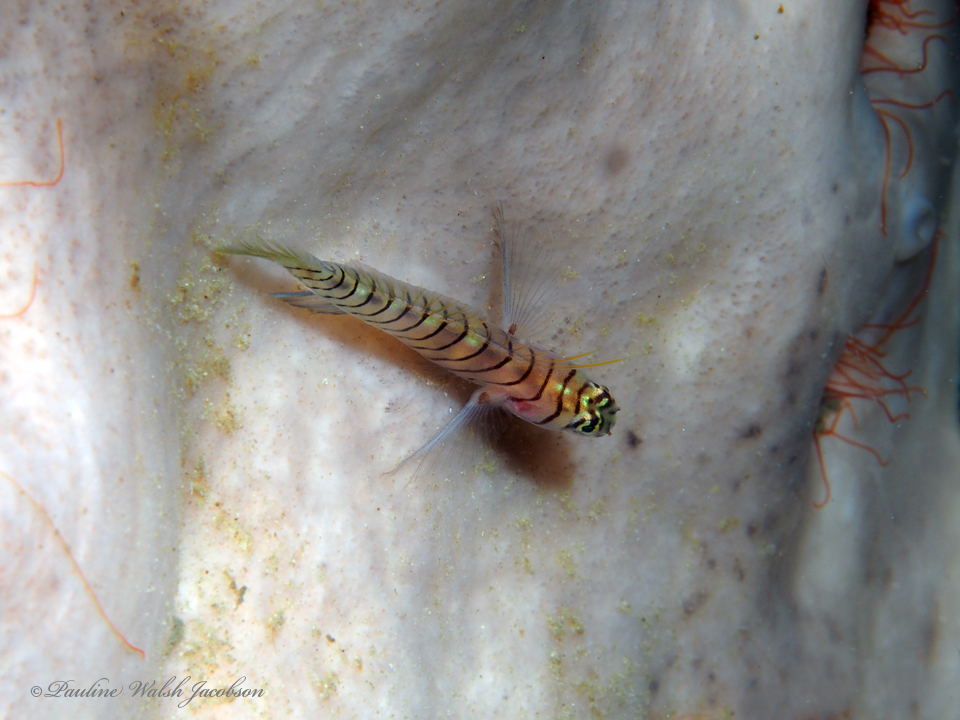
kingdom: Animalia
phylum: Chordata
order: Perciformes
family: Gobiidae
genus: Tigrigobius
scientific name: Tigrigobius macrodon
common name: Tiger goby
